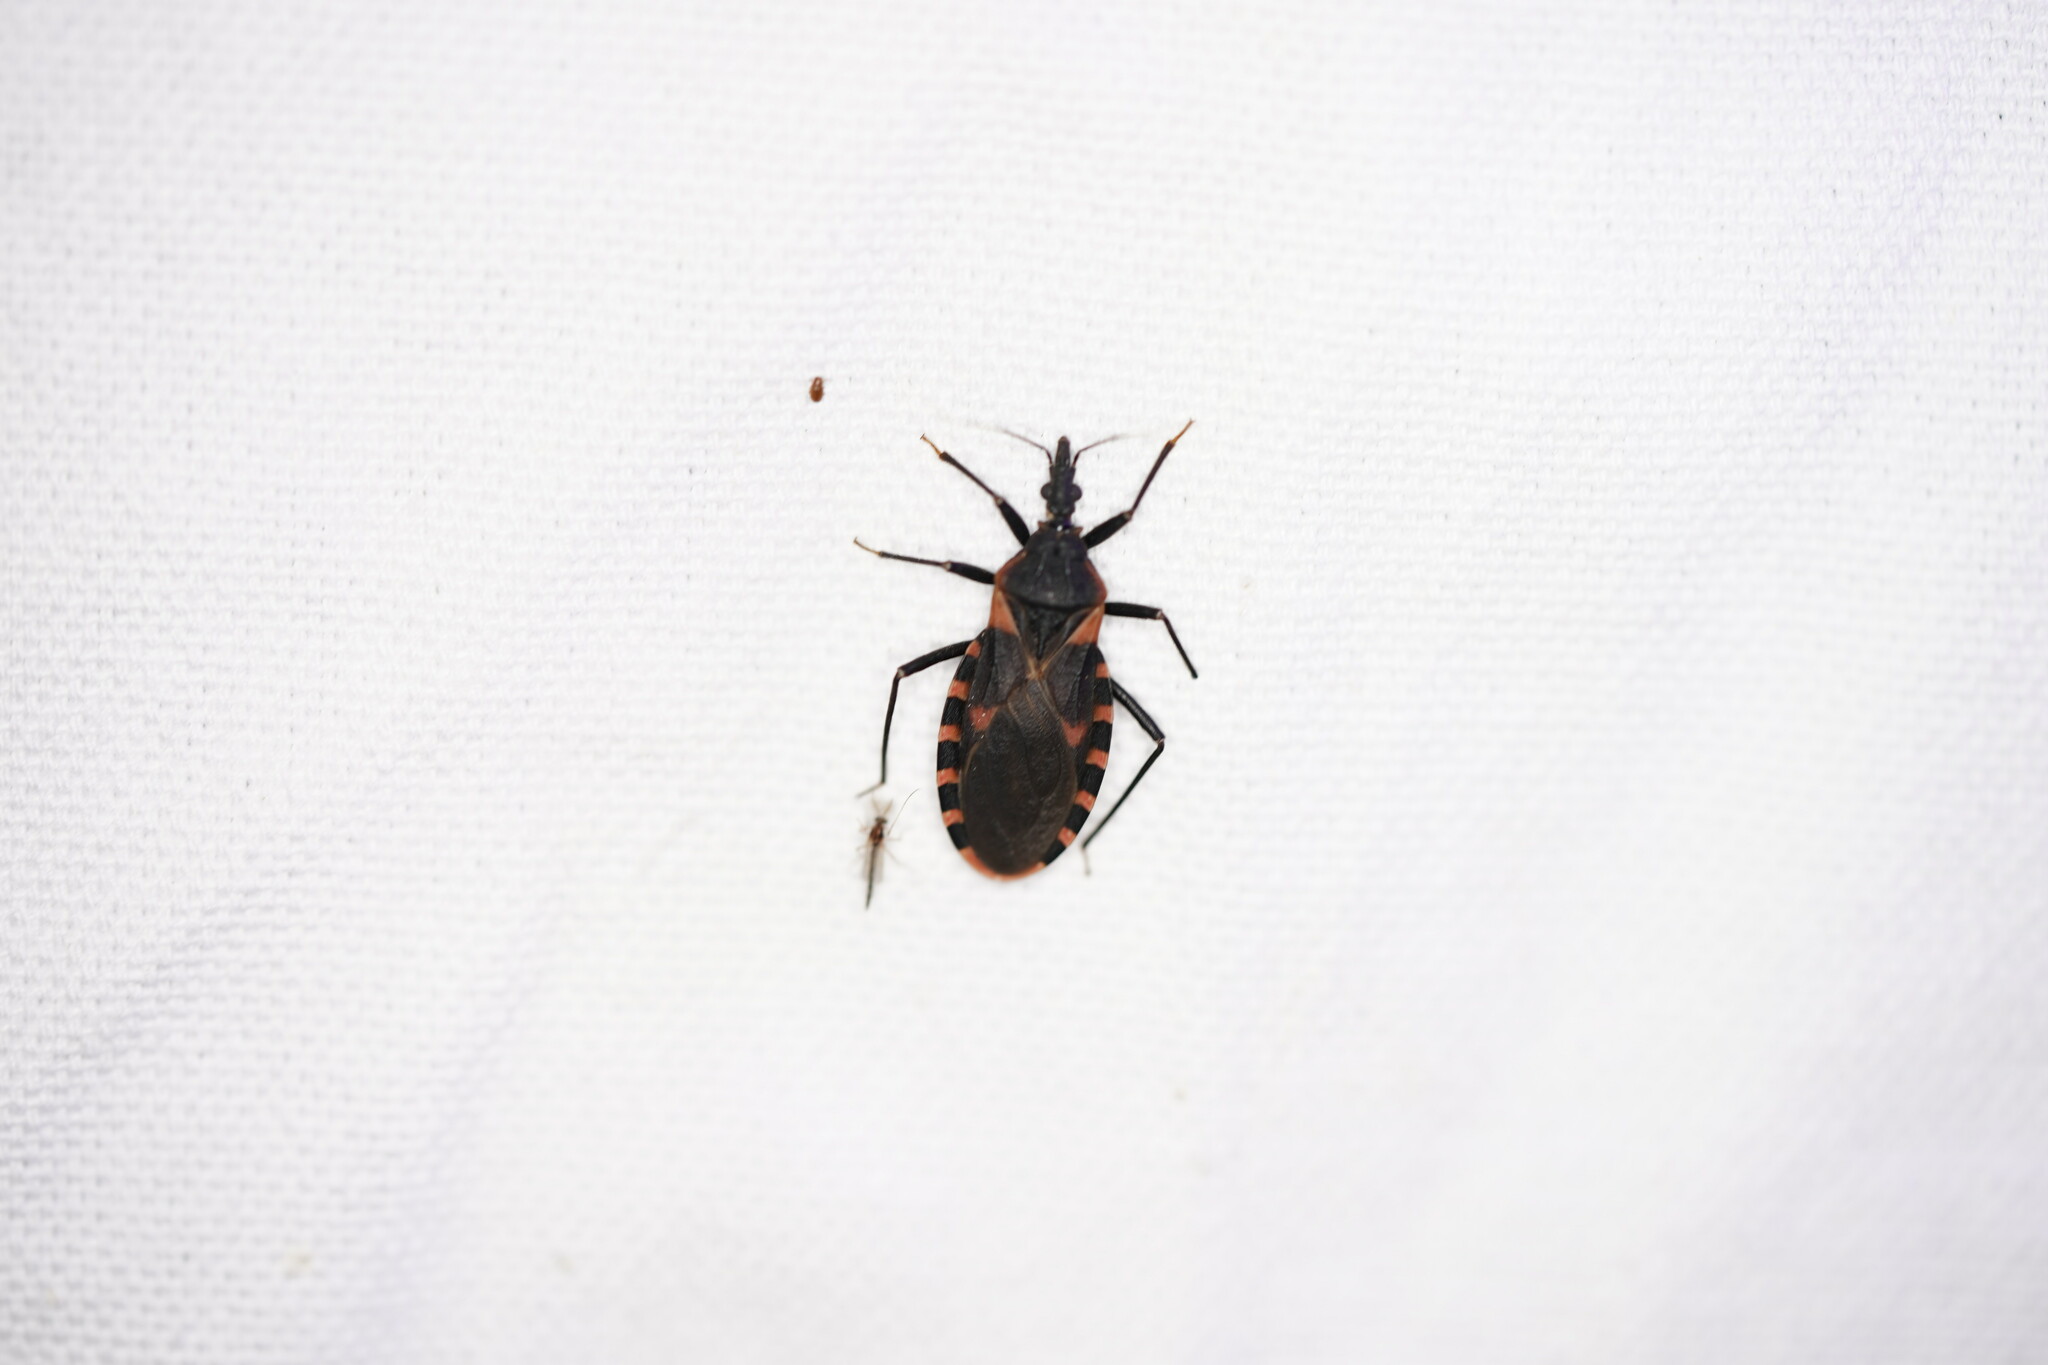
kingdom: Animalia
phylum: Arthropoda
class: Insecta
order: Hemiptera
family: Reduviidae
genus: Triatoma
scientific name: Triatoma sanguisuga
